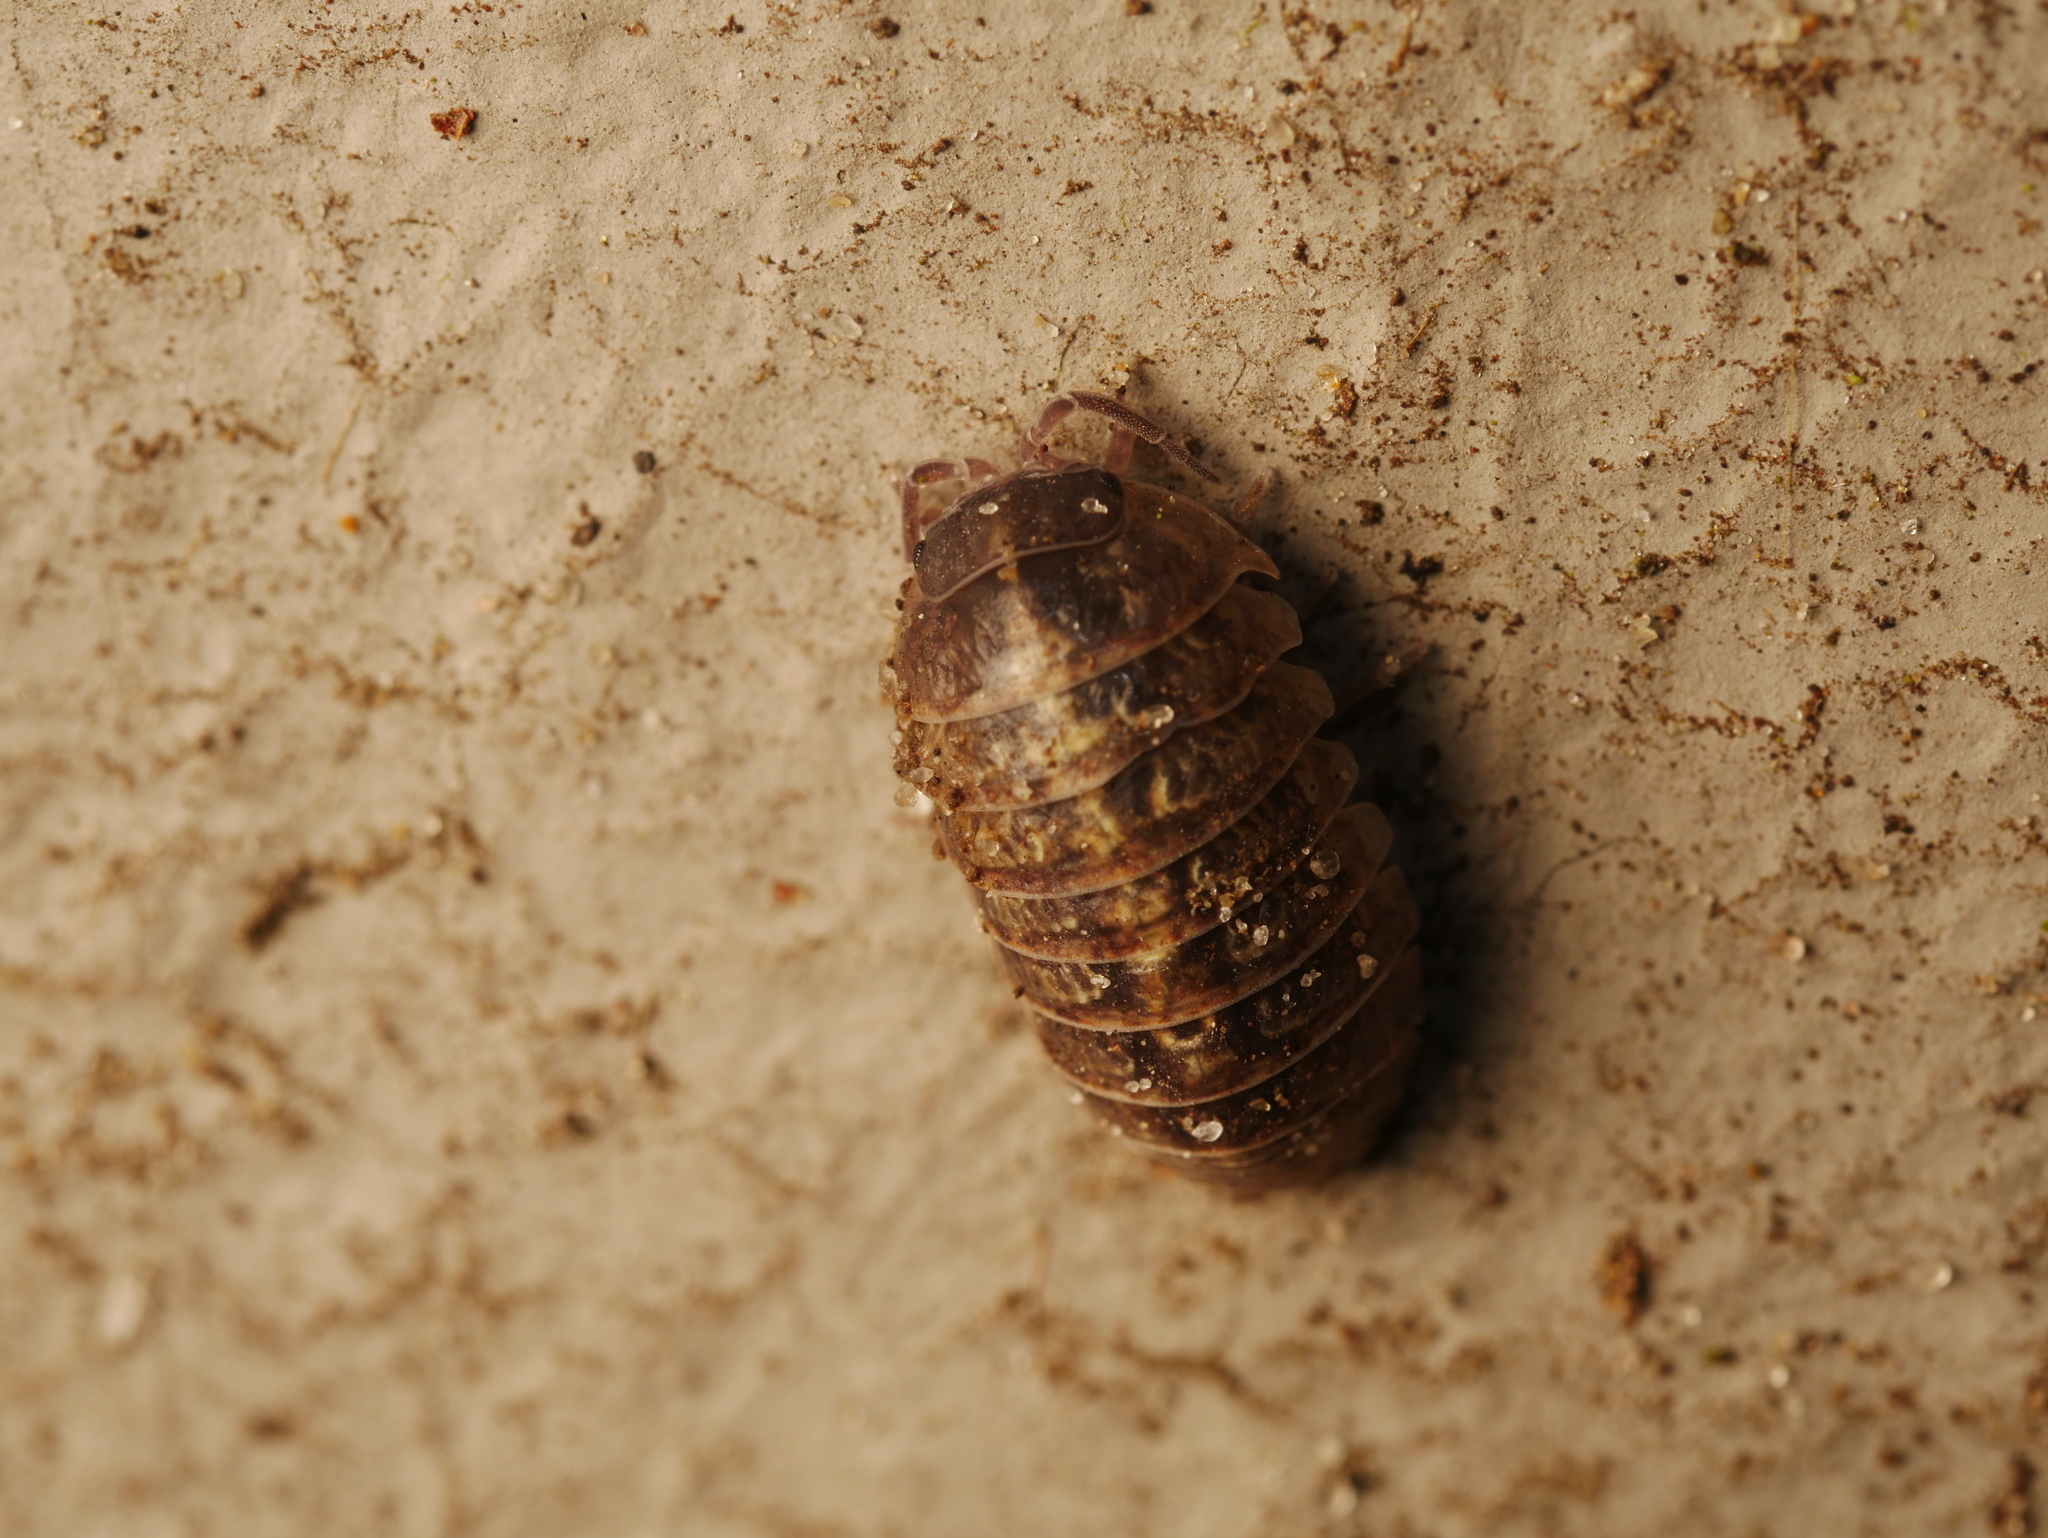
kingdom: Animalia
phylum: Arthropoda
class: Malacostraca
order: Isopoda
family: Armadillidiidae
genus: Armadillidium
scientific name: Armadillidium vulgare
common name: Common pill woodlouse
